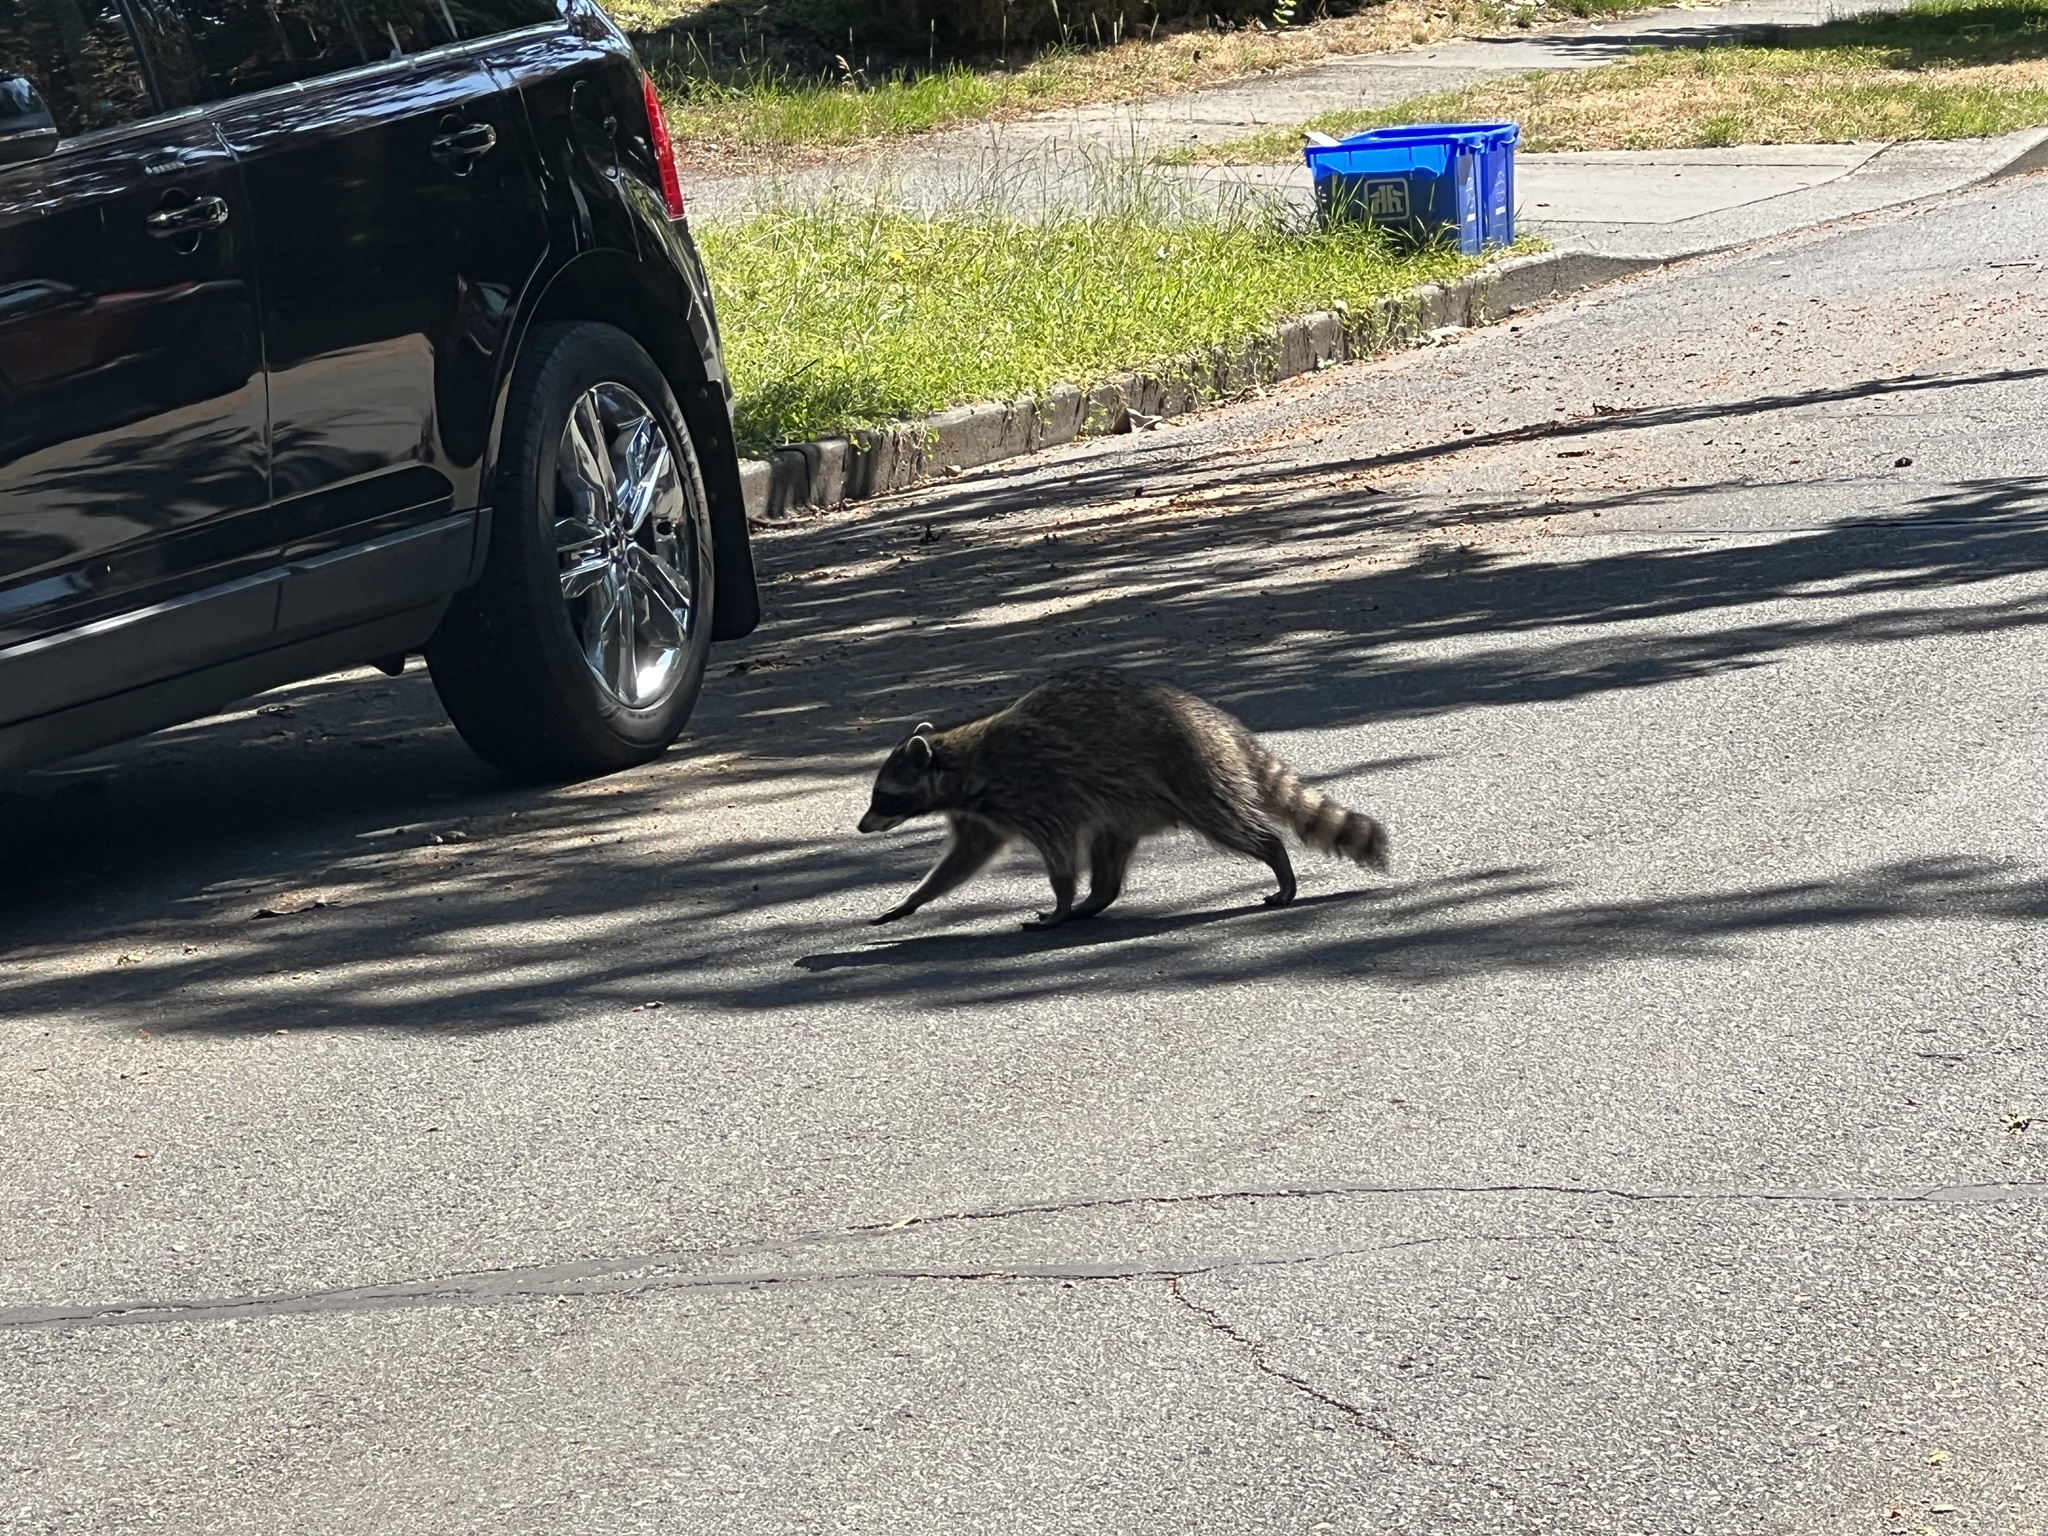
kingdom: Animalia
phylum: Chordata
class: Mammalia
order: Carnivora
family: Procyonidae
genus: Procyon
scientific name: Procyon lotor
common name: Raccoon
